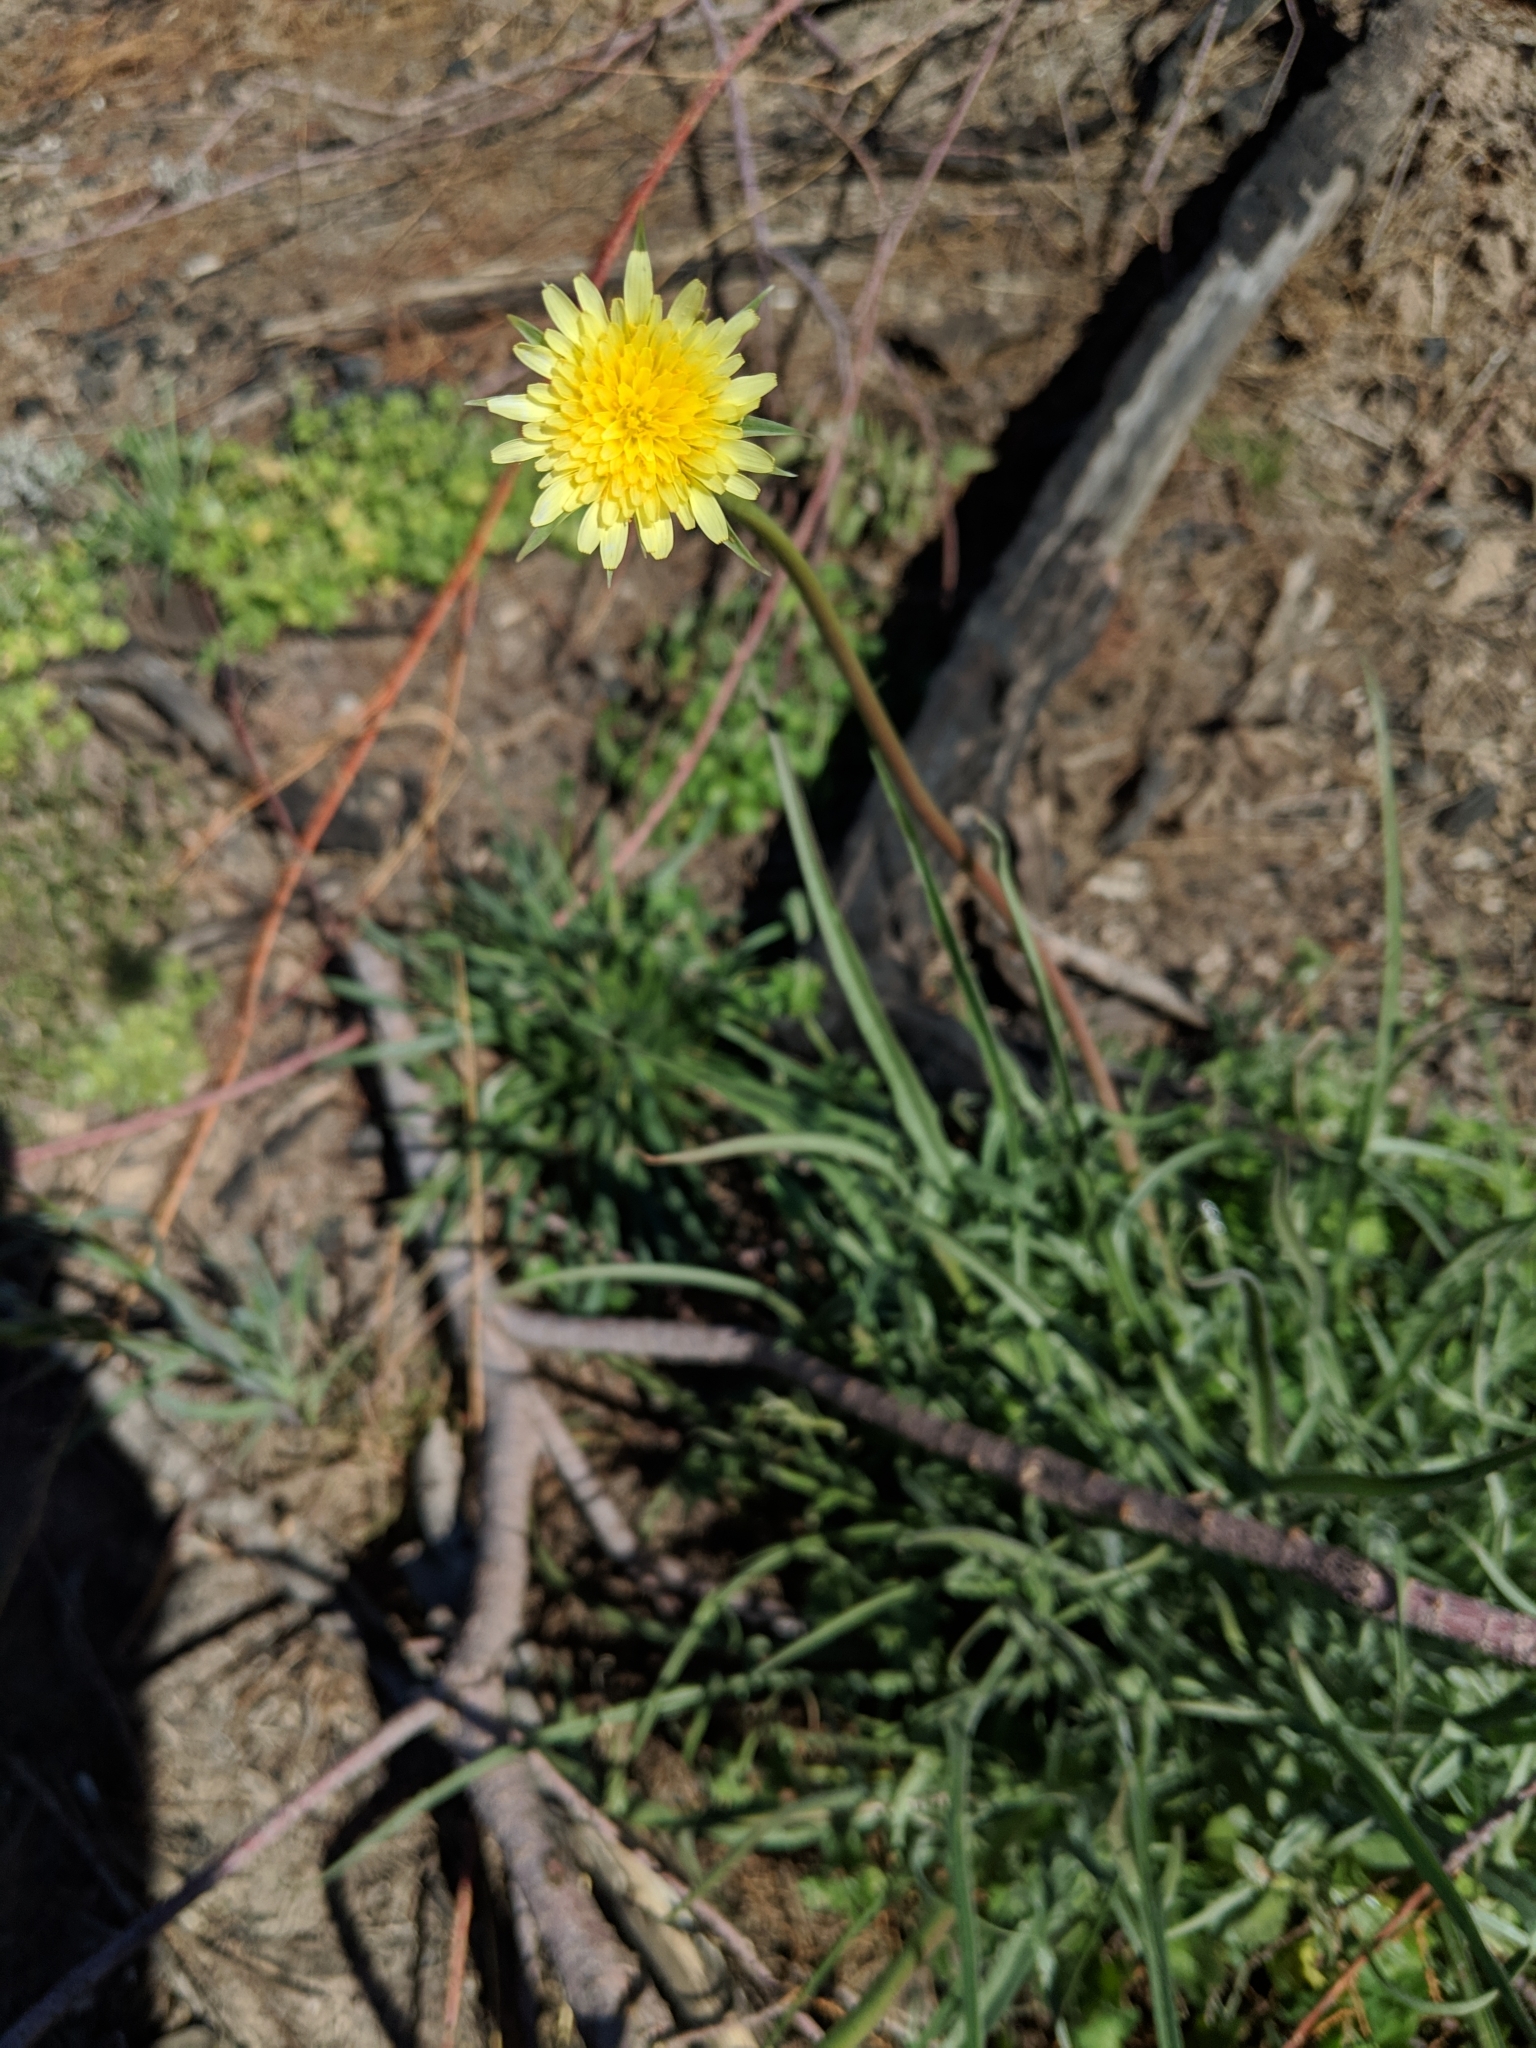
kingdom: Plantae
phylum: Tracheophyta
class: Magnoliopsida
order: Asterales
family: Asteraceae
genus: Microseris
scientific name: Microseris lindleyi
